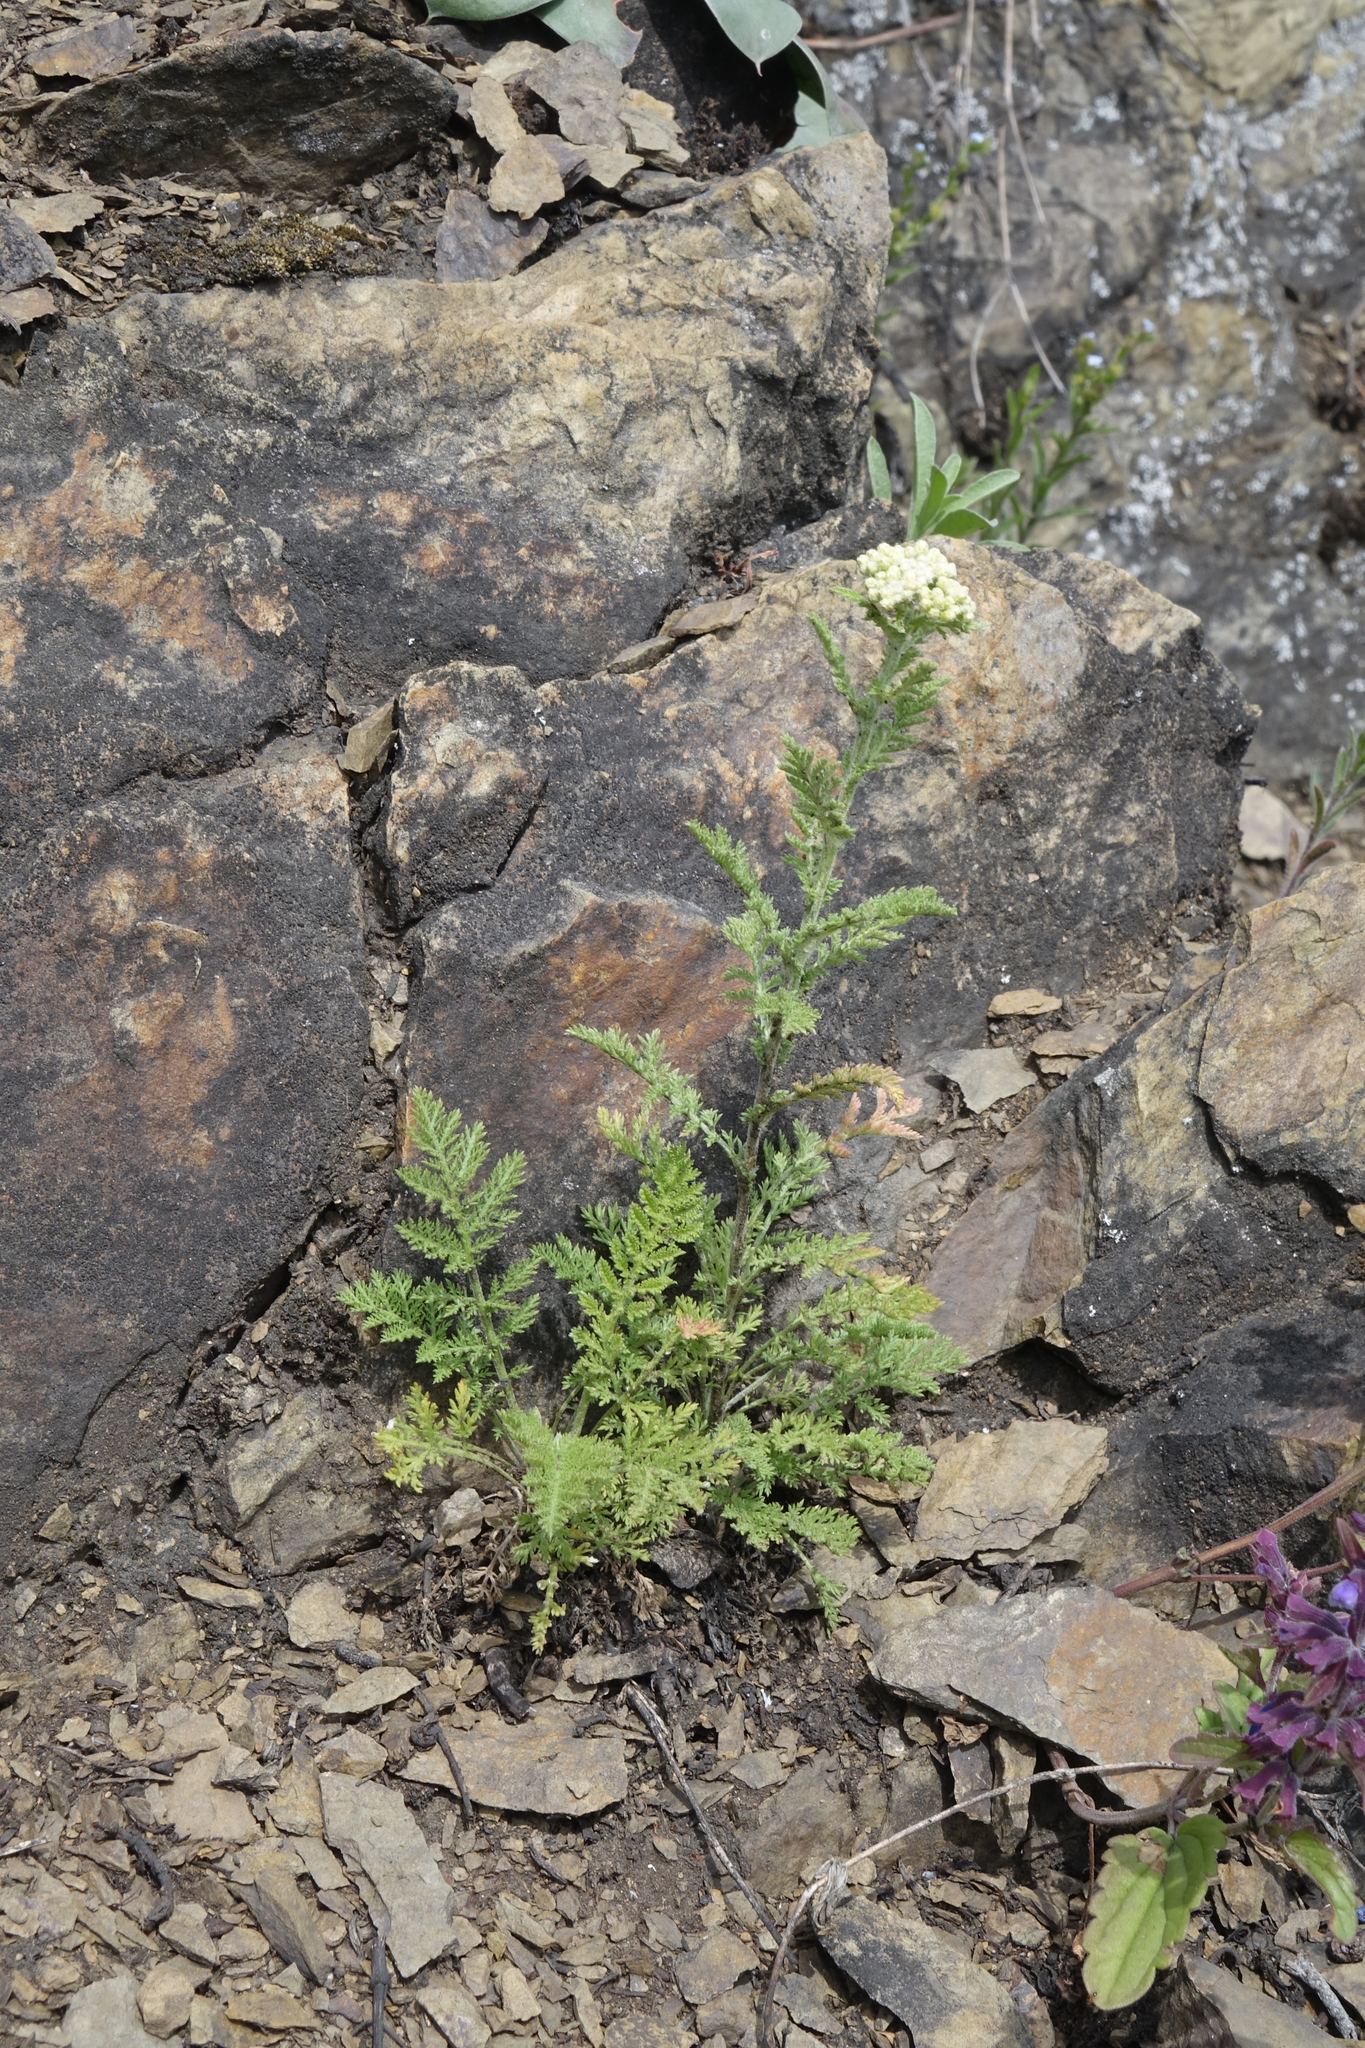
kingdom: Plantae
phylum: Tracheophyta
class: Magnoliopsida
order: Asterales
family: Asteraceae
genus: Achillea
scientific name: Achillea nobilis
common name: Noble yarrow
